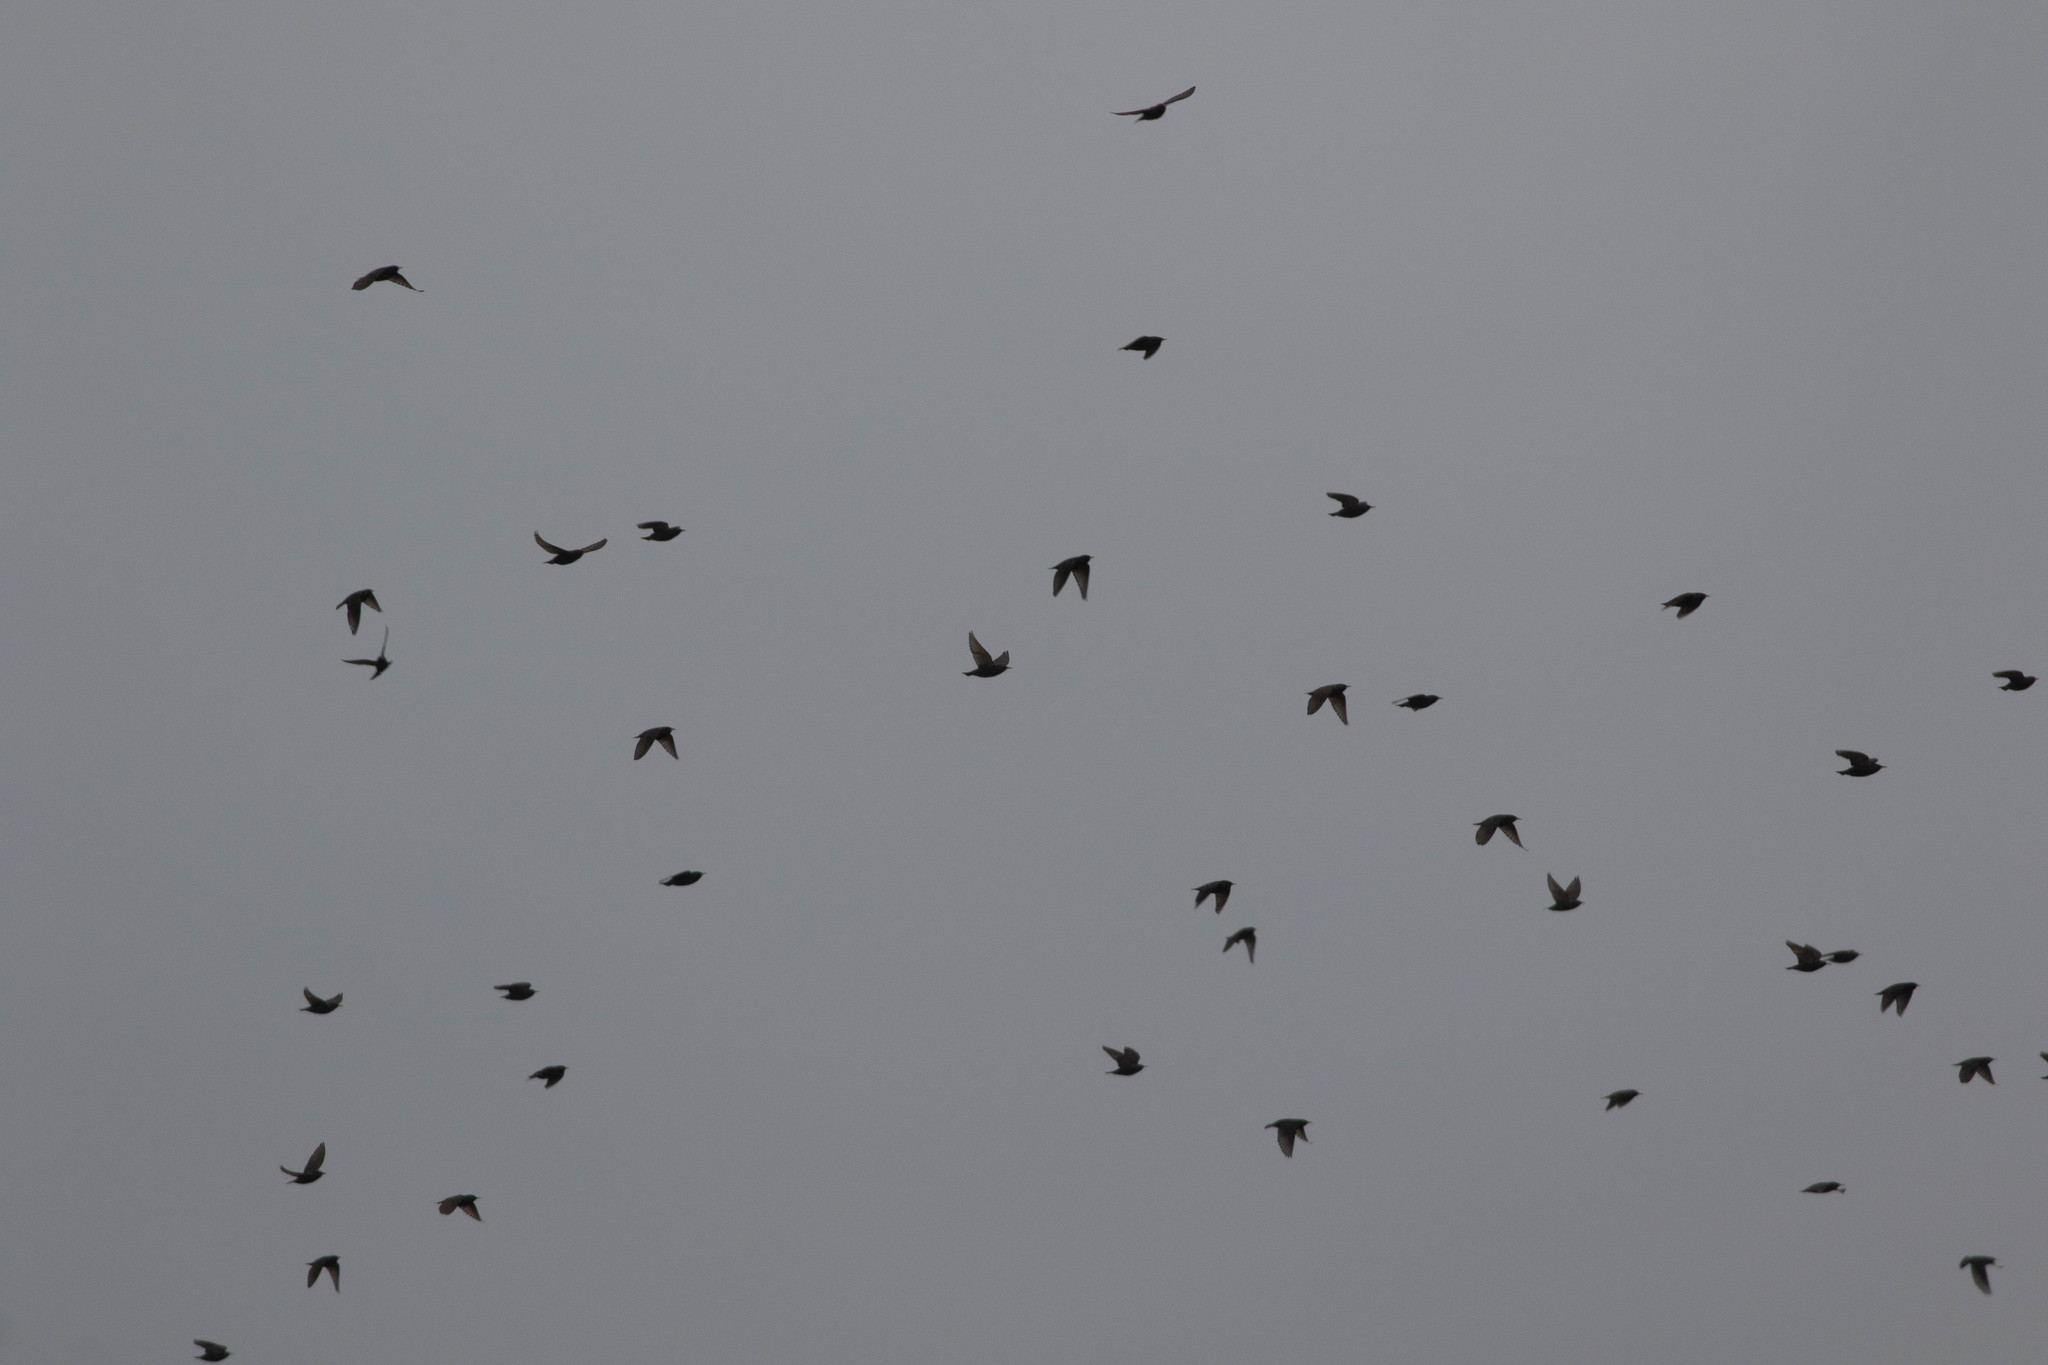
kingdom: Animalia
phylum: Chordata
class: Aves
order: Passeriformes
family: Sturnidae
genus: Sturnus
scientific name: Sturnus vulgaris
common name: Common starling
